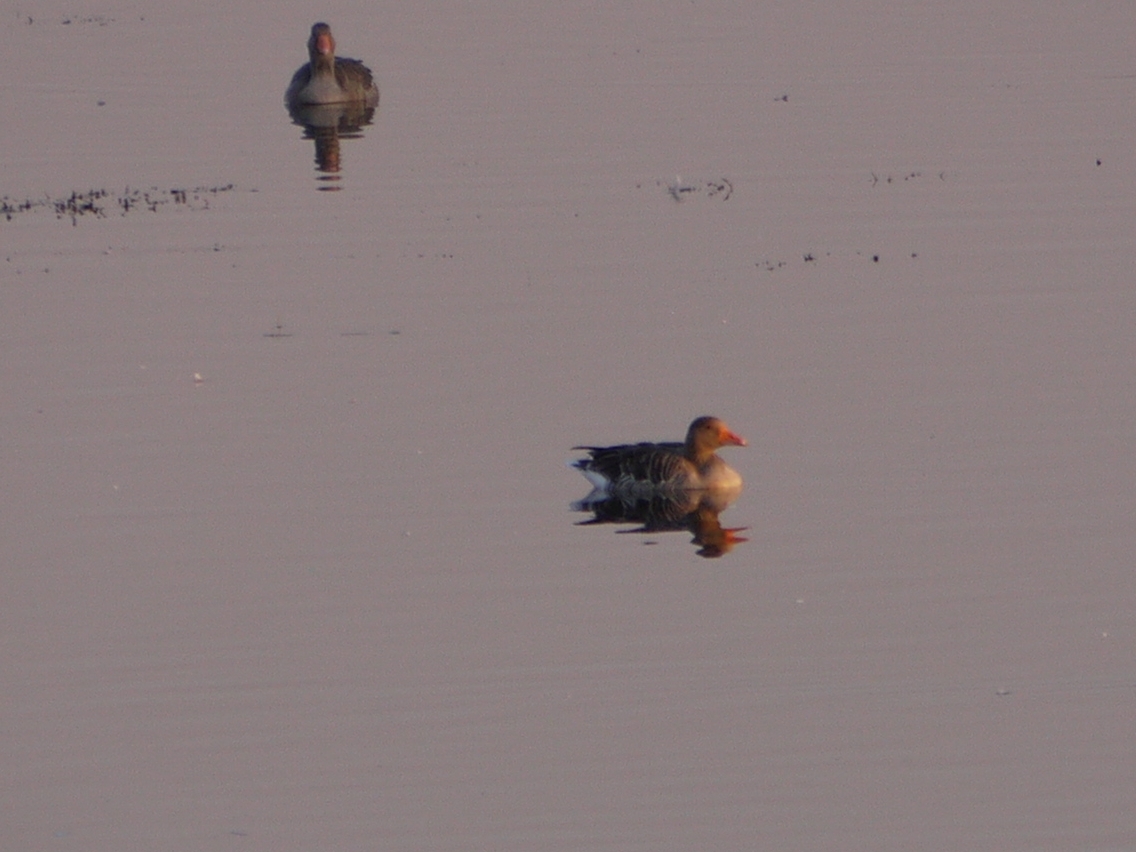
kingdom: Animalia
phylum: Chordata
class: Aves
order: Anseriformes
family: Anatidae
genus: Anser
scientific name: Anser anser
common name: Greylag goose
